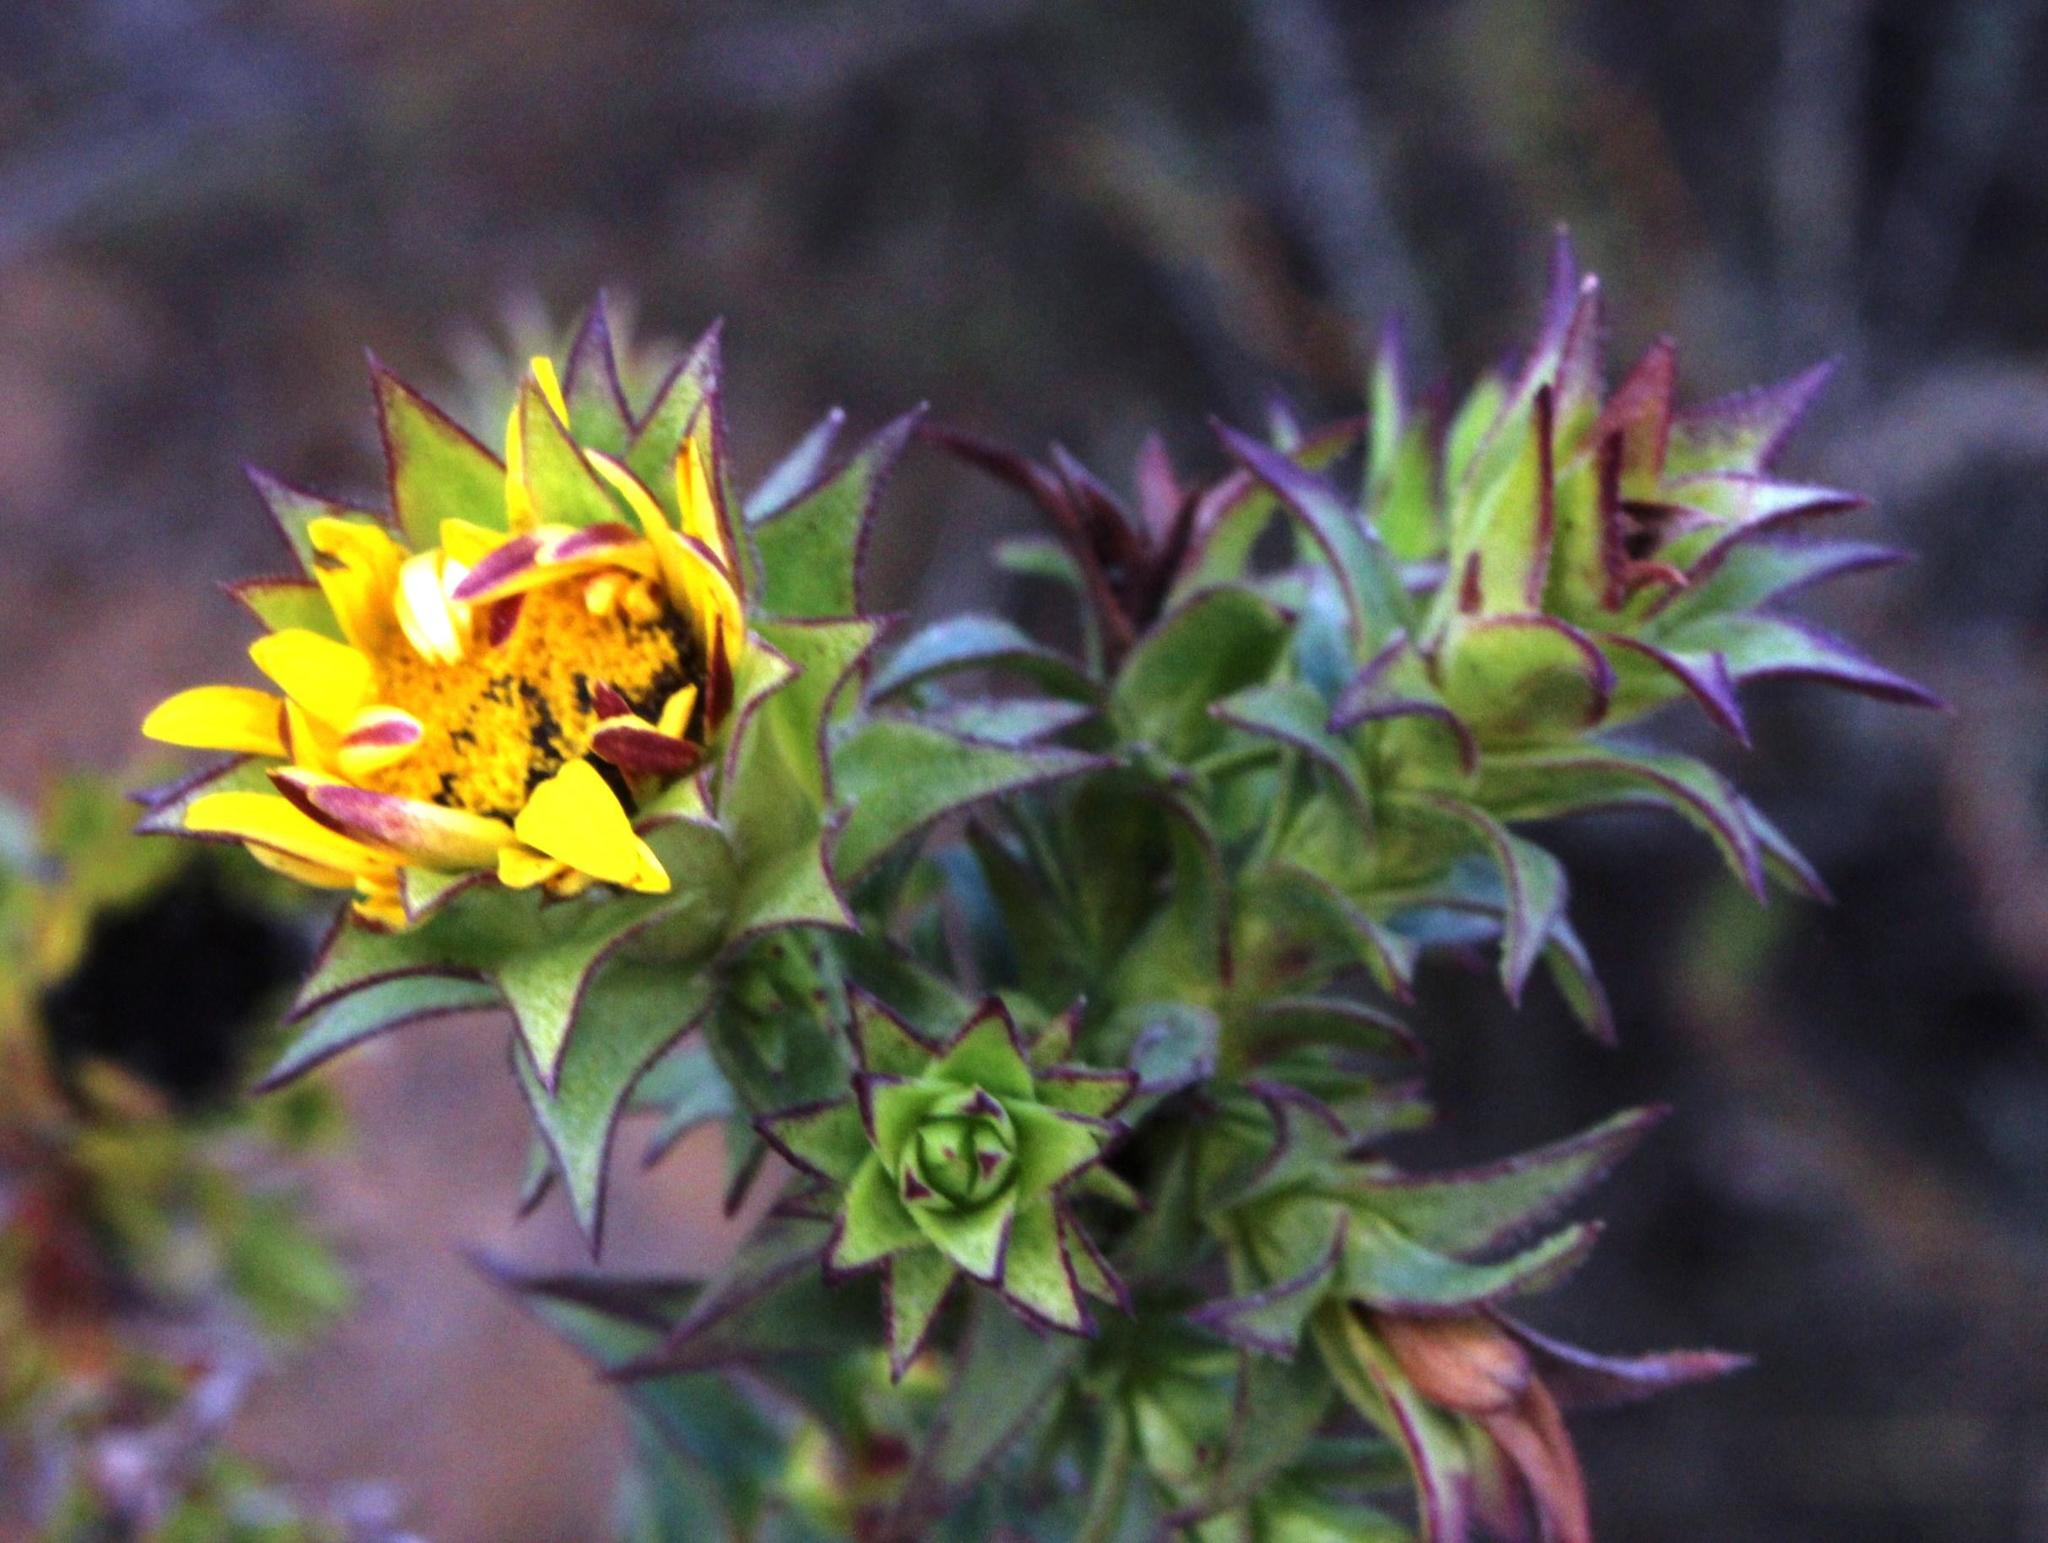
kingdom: Plantae
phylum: Tracheophyta
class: Magnoliopsida
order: Asterales
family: Asteraceae
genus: Oedera
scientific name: Oedera imbricata
